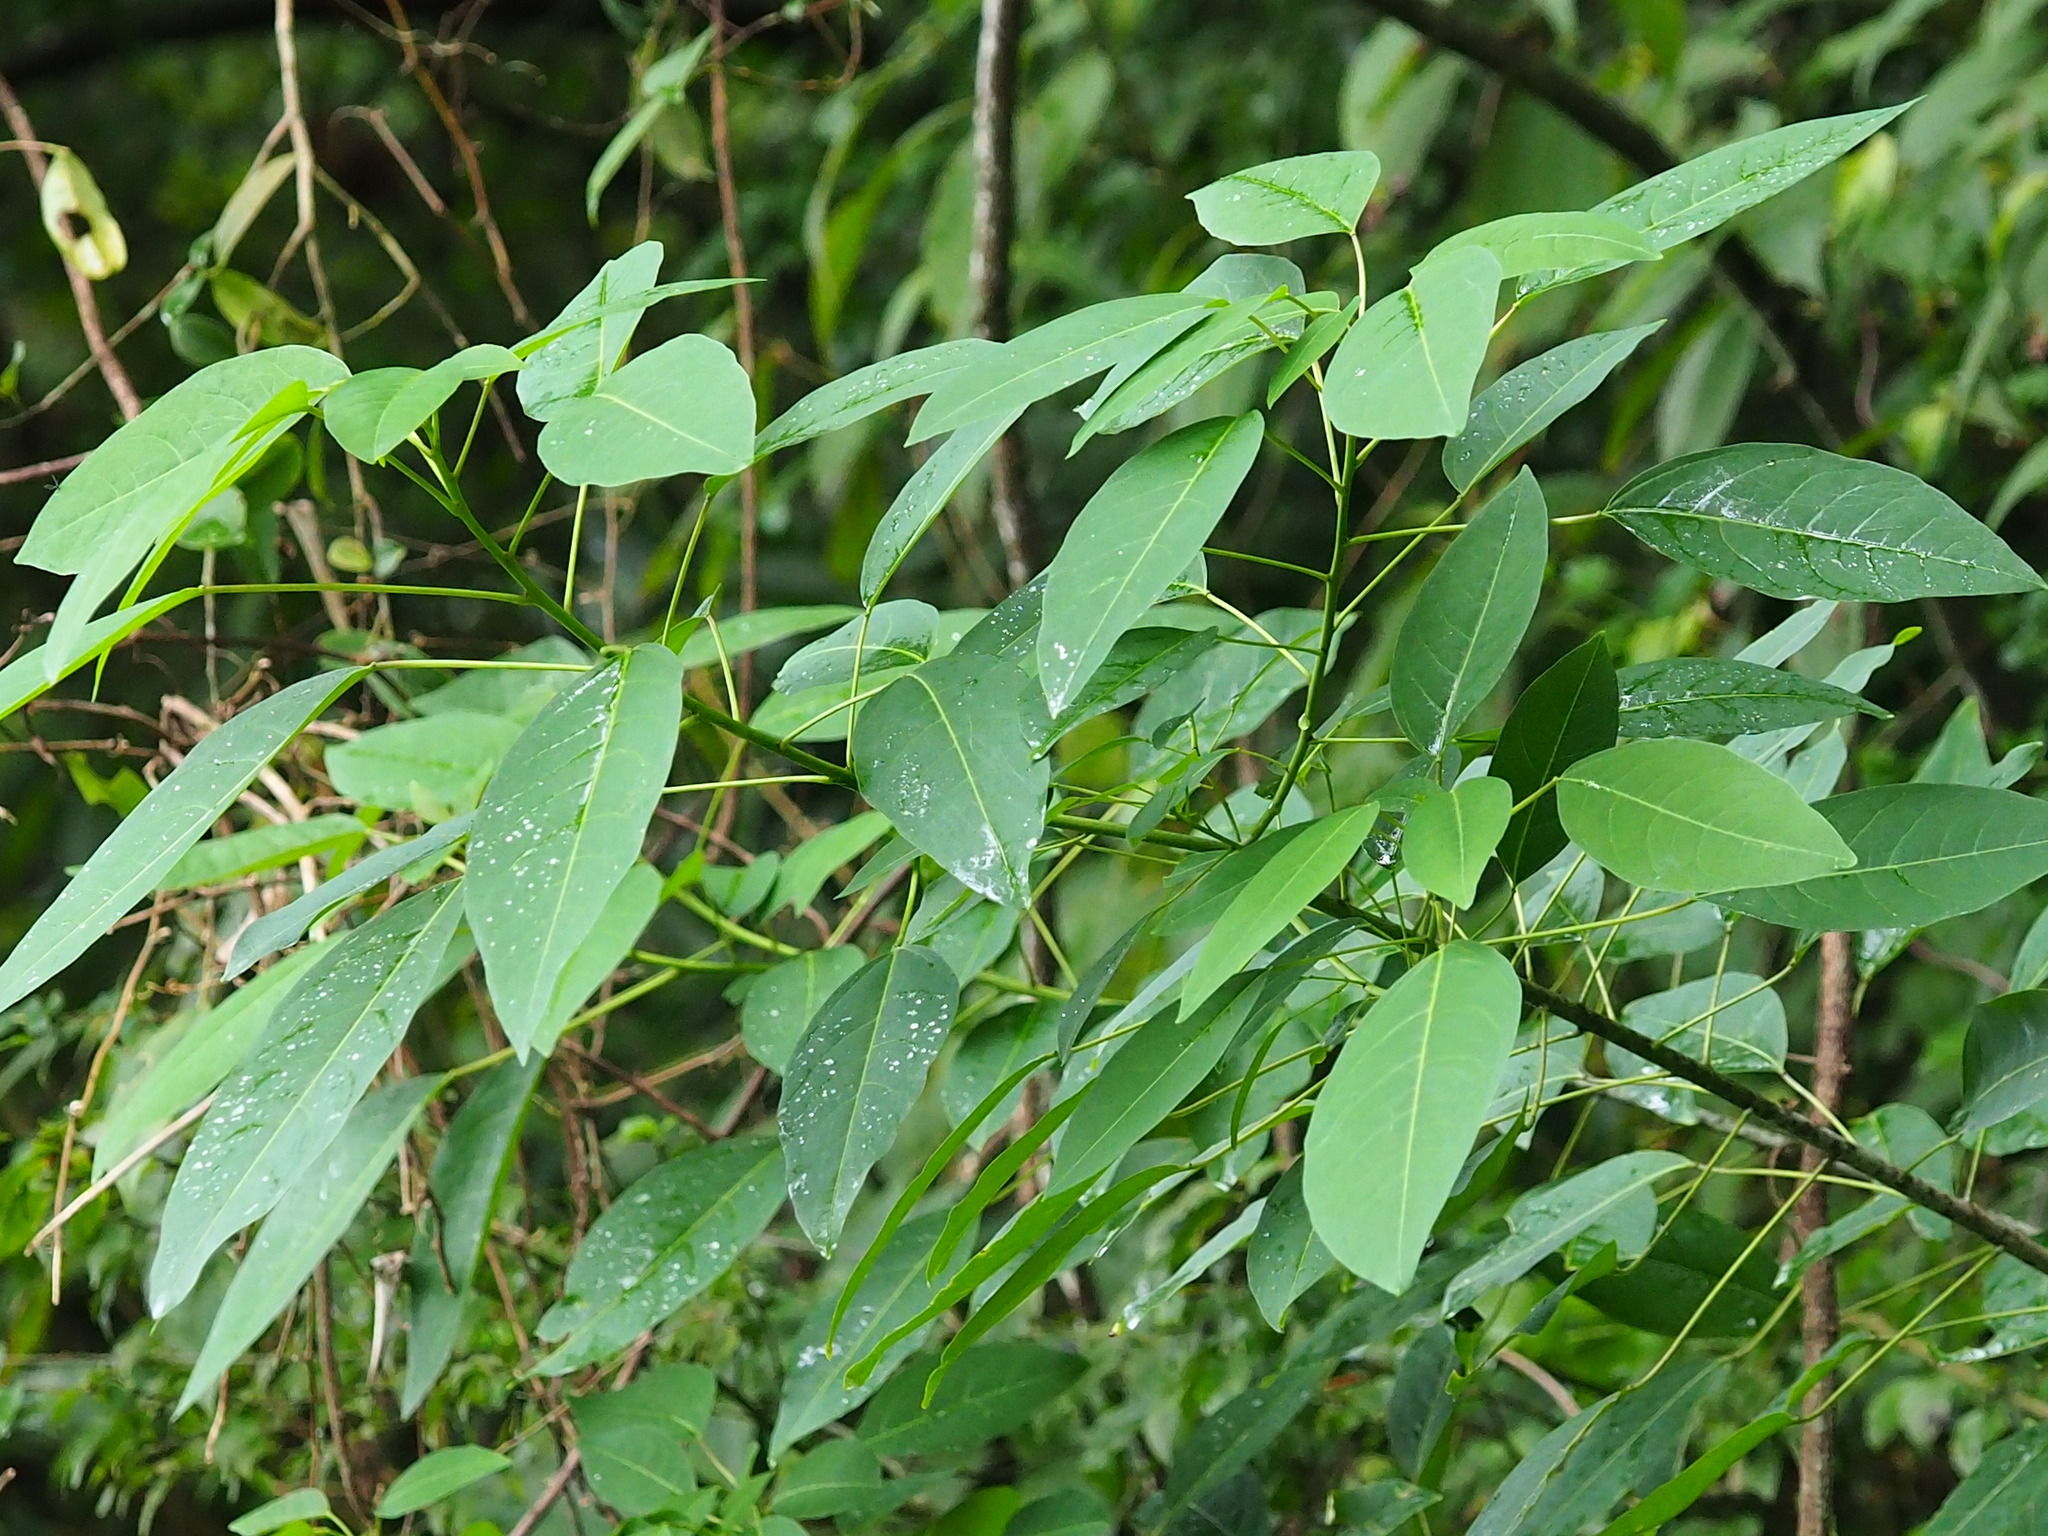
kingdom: Plantae
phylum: Tracheophyta
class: Magnoliopsida
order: Malpighiales
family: Euphorbiaceae
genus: Triadica
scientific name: Triadica cochinchinensis
